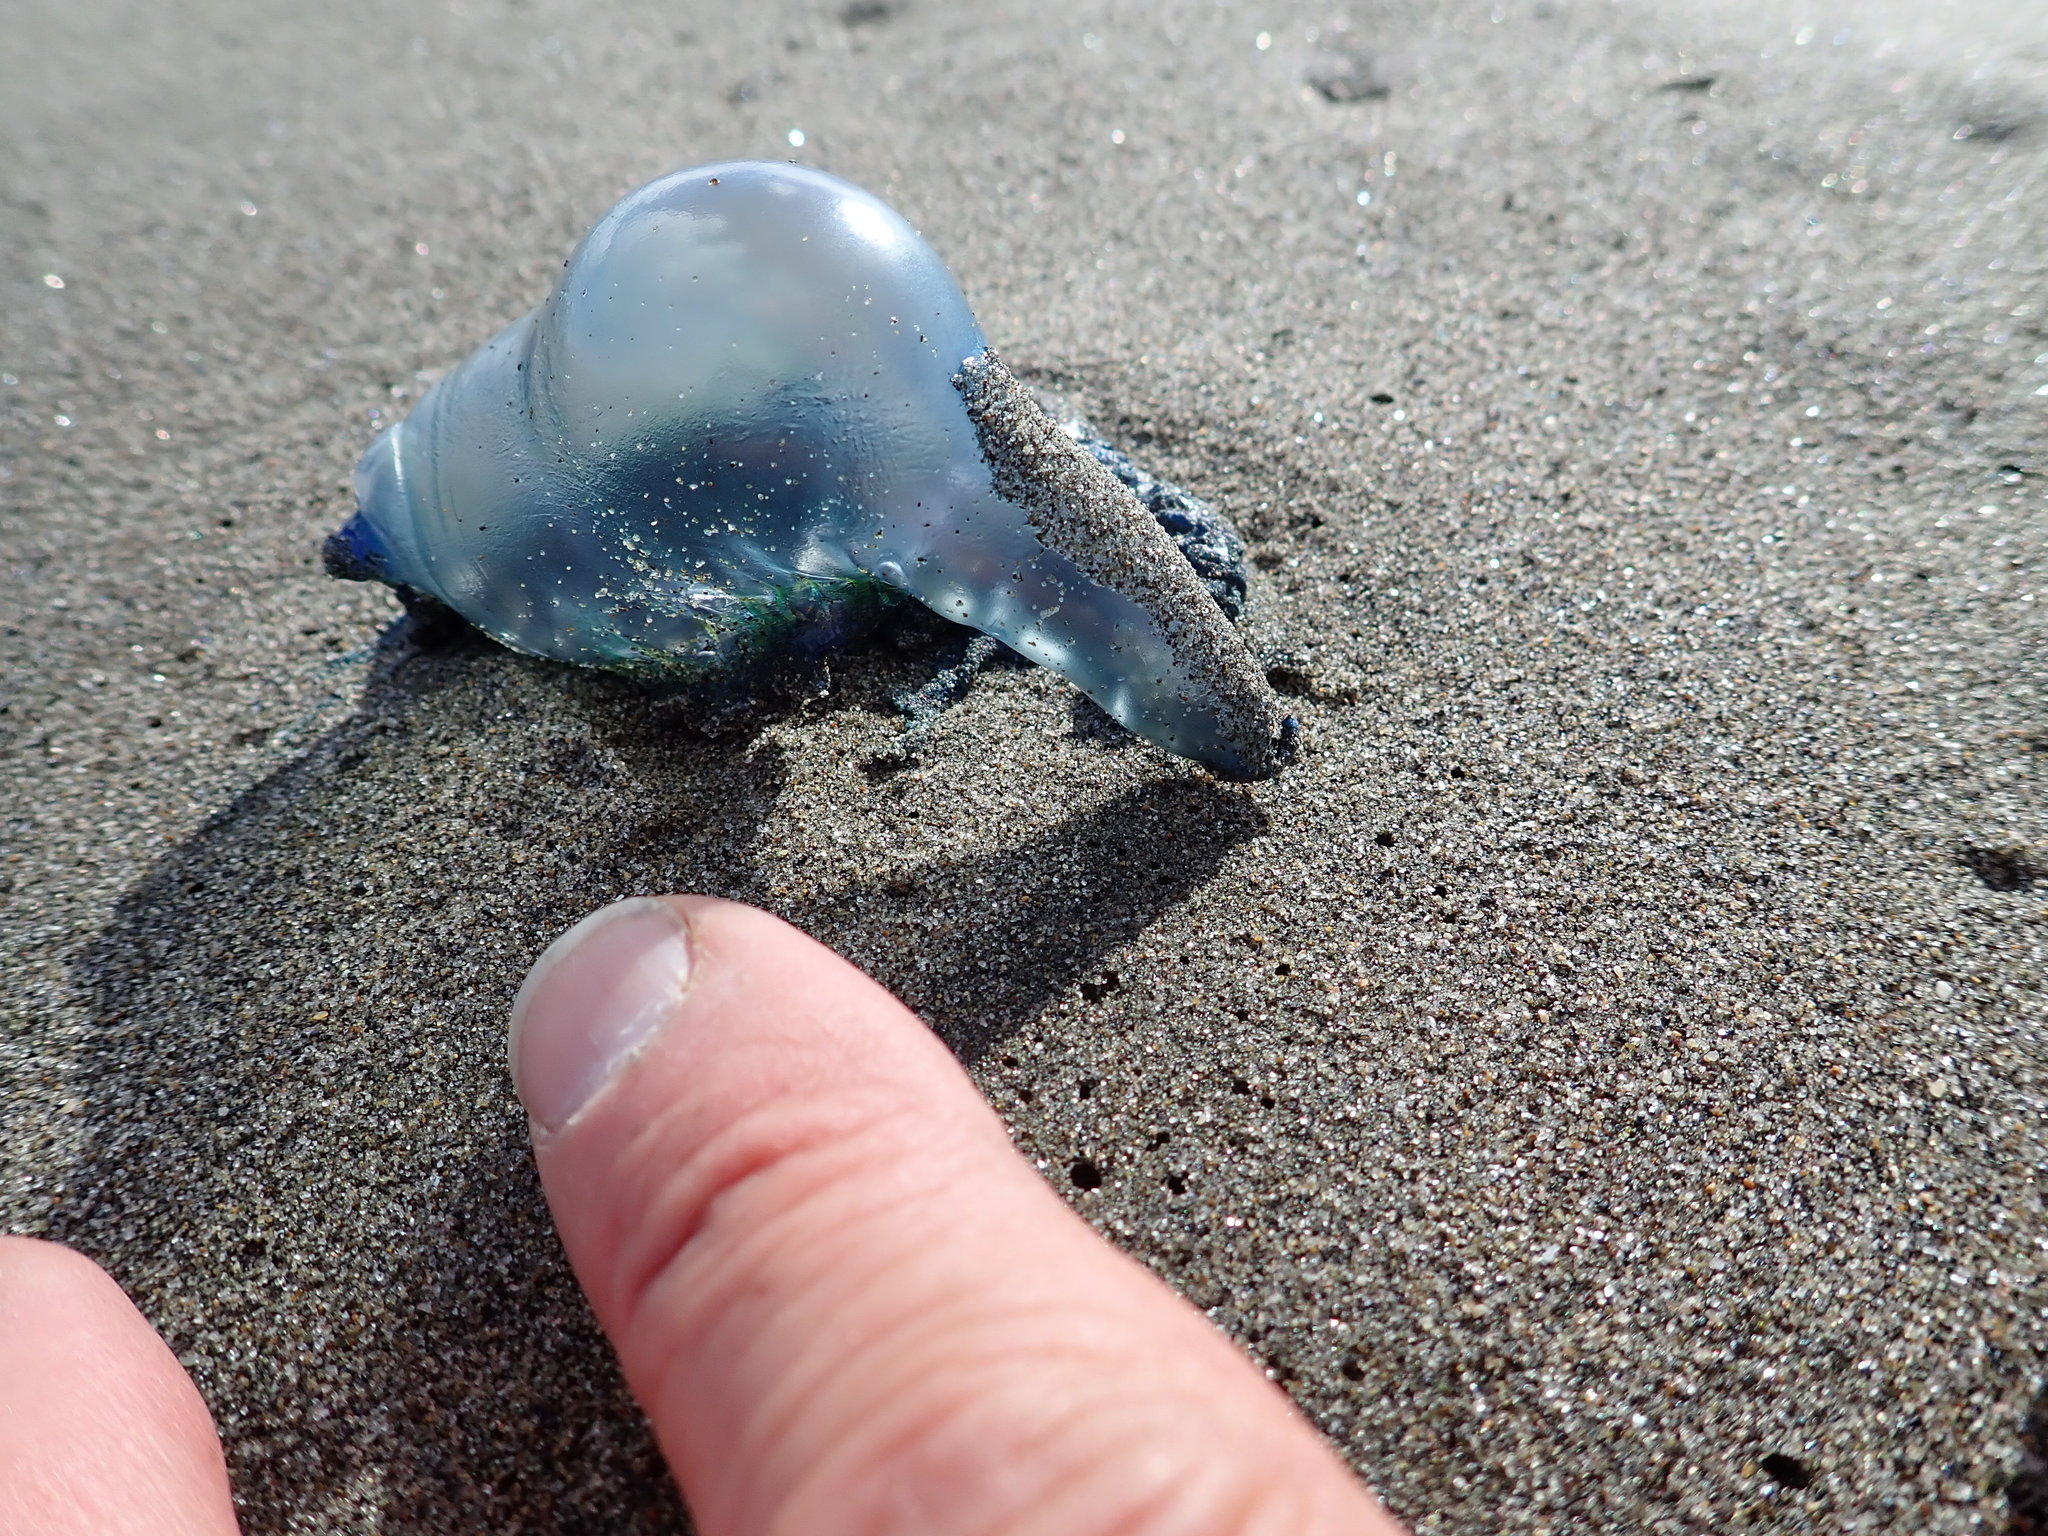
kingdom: Animalia
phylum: Cnidaria
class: Hydrozoa
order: Siphonophorae
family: Physaliidae
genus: Physalia
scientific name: Physalia physalis
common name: Portuguese man-of-war
